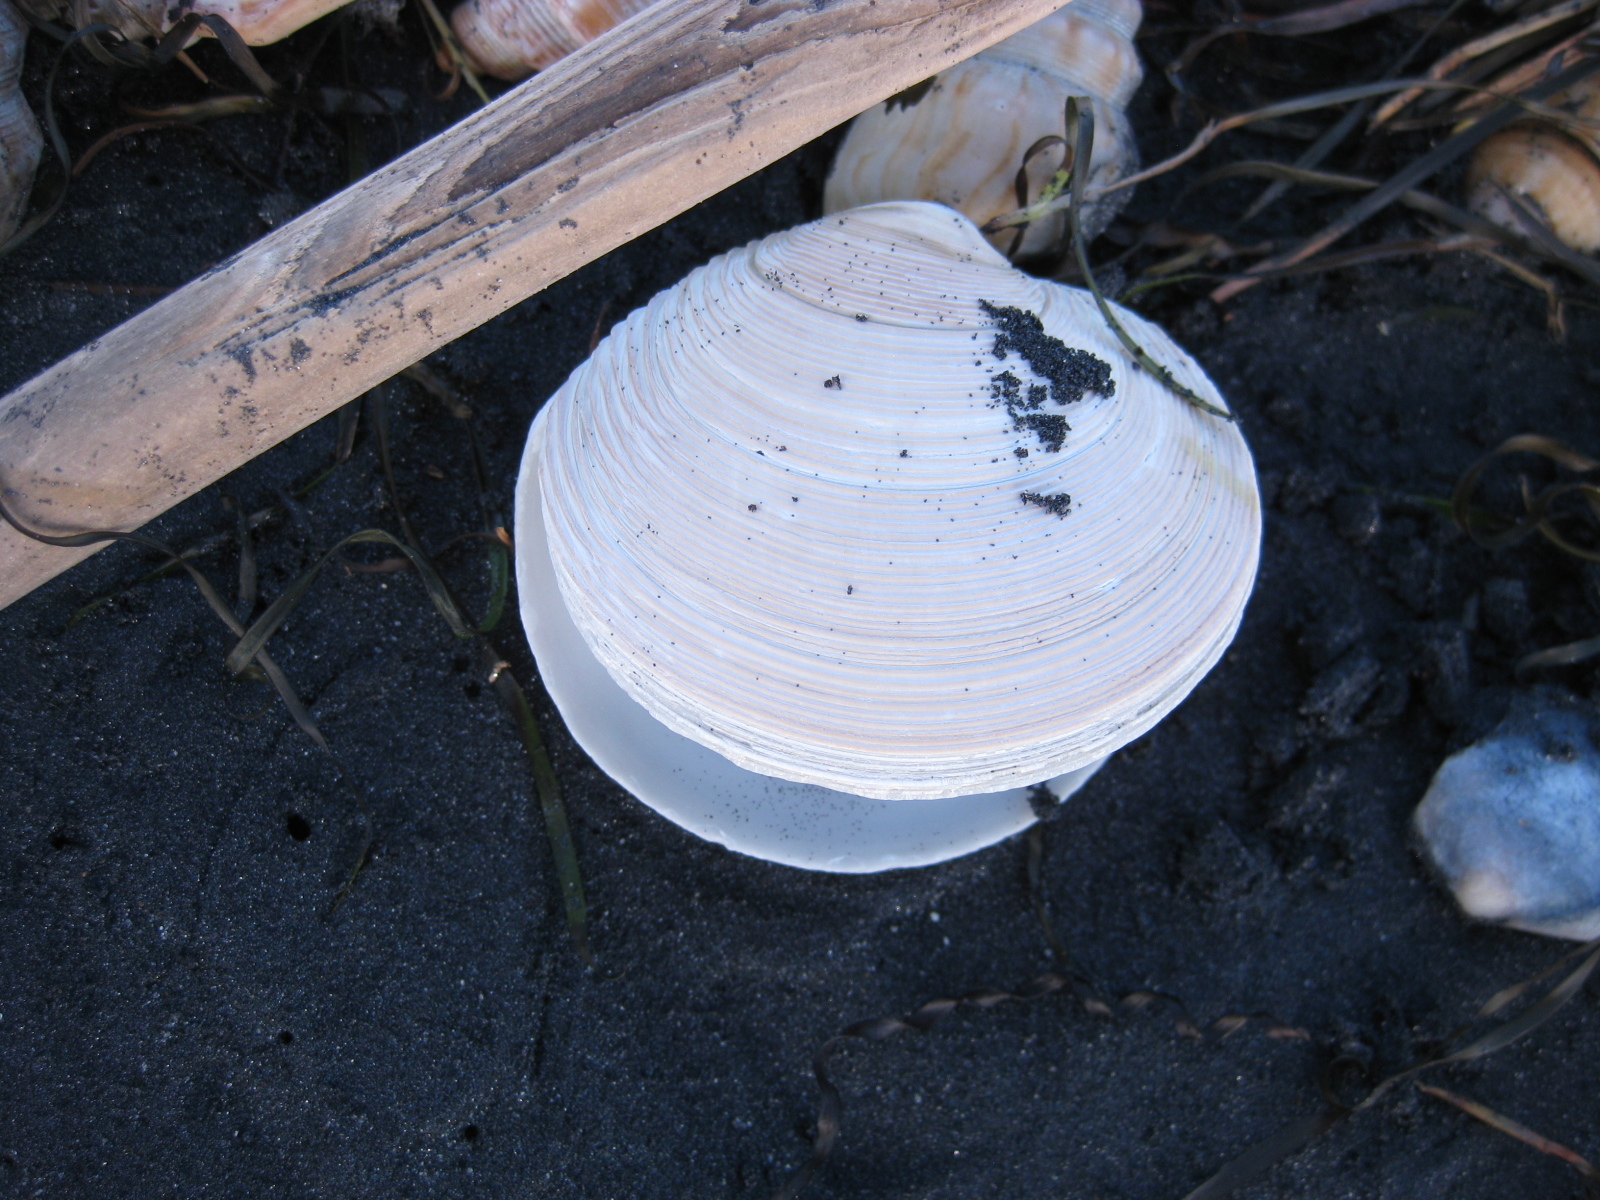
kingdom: Animalia
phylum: Mollusca
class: Bivalvia
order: Venerida
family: Veneridae
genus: Dosinia
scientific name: Dosinia anus
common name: Old-woman dosinia
